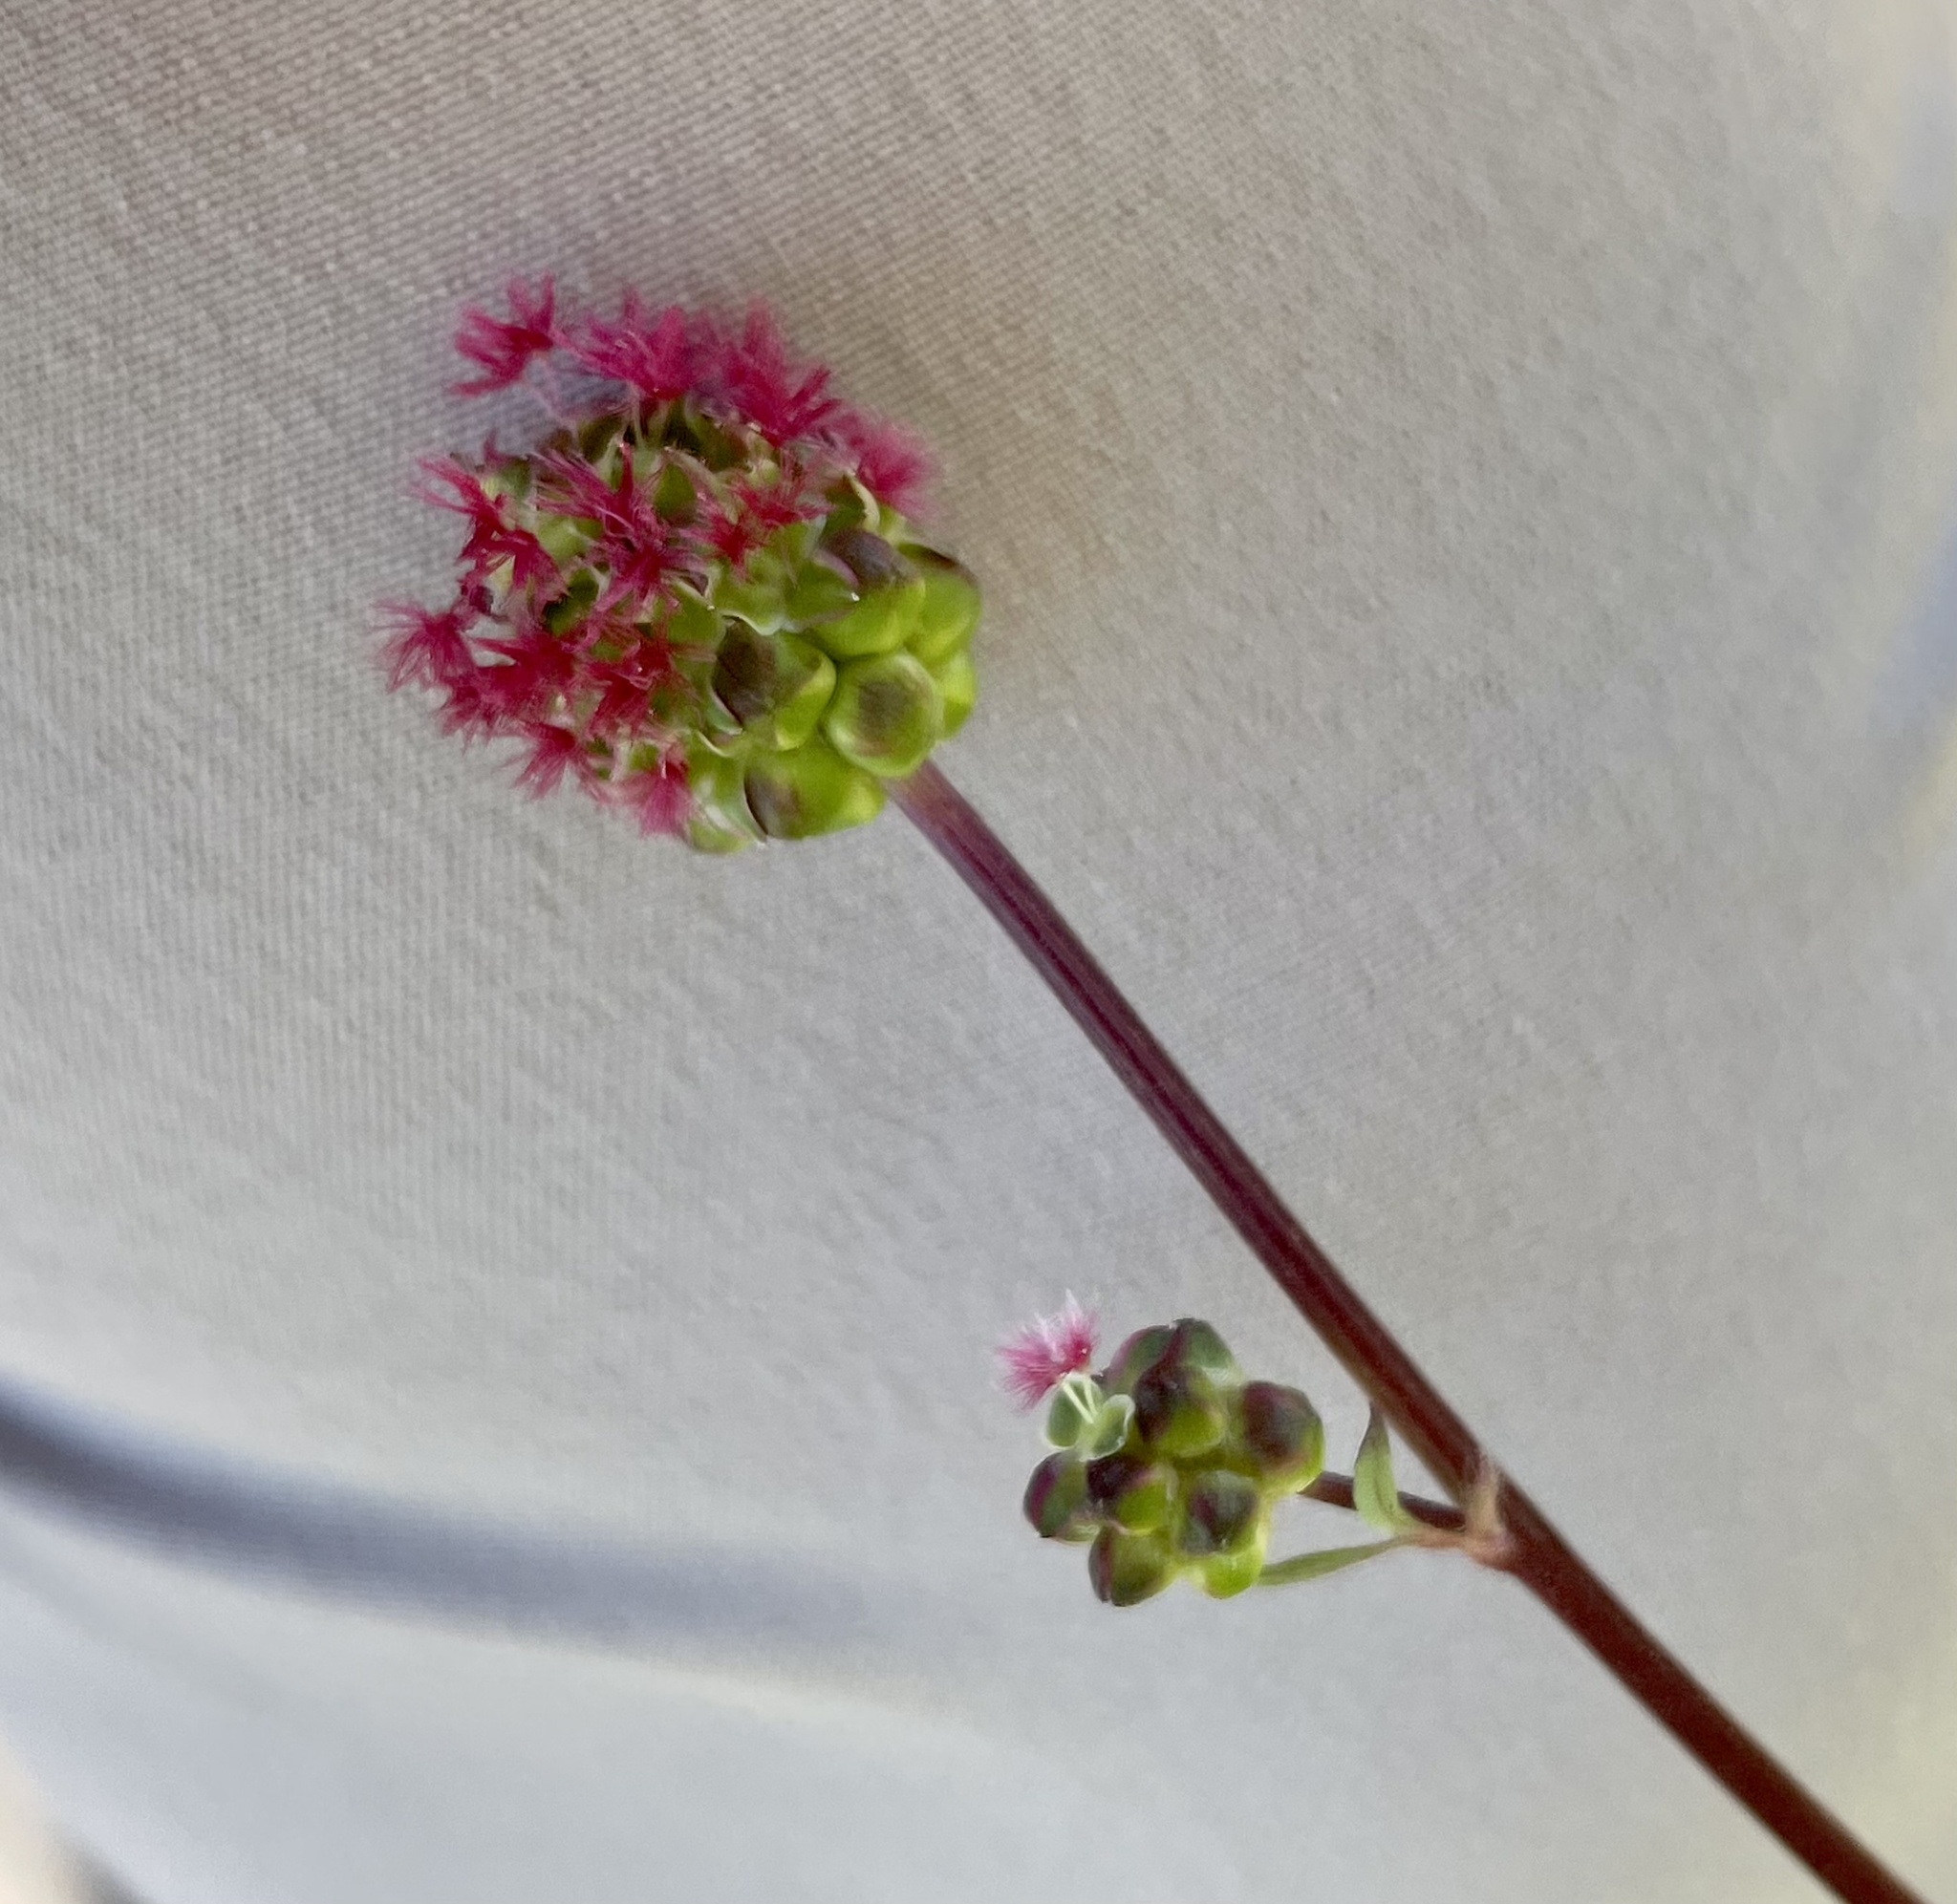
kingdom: Plantae
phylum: Tracheophyta
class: Magnoliopsida
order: Rosales
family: Rosaceae
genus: Poterium
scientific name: Poterium sanguisorba
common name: Salad burnet
